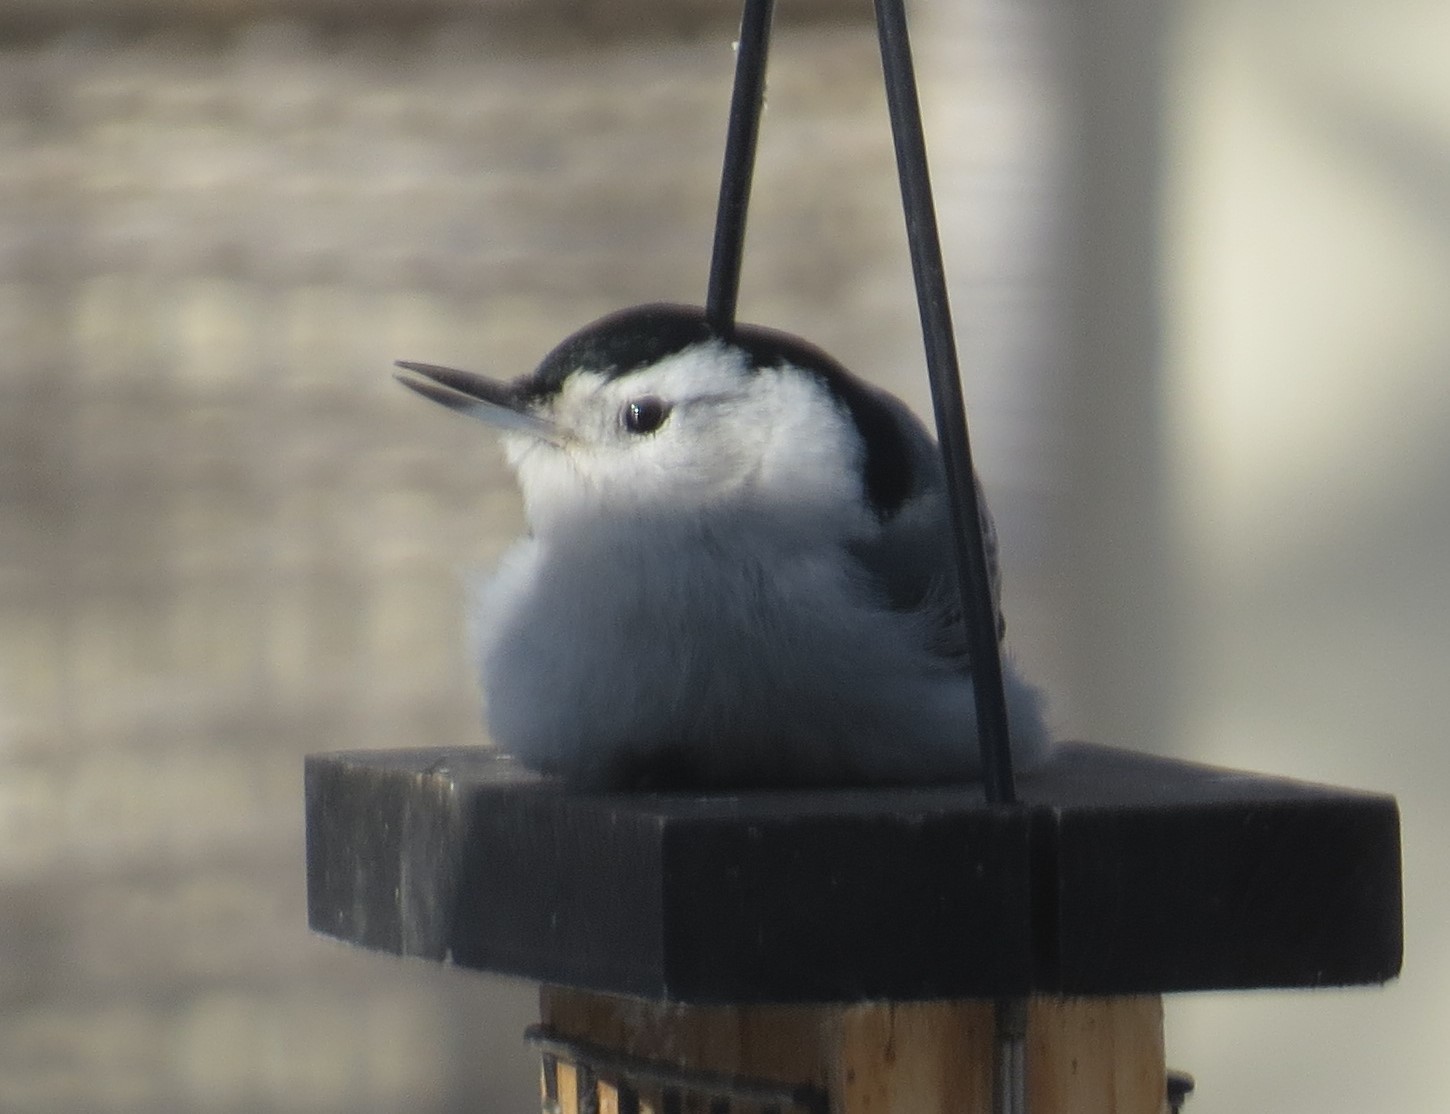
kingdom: Animalia
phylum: Chordata
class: Aves
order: Passeriformes
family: Sittidae
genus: Sitta
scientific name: Sitta carolinensis
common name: White-breasted nuthatch
